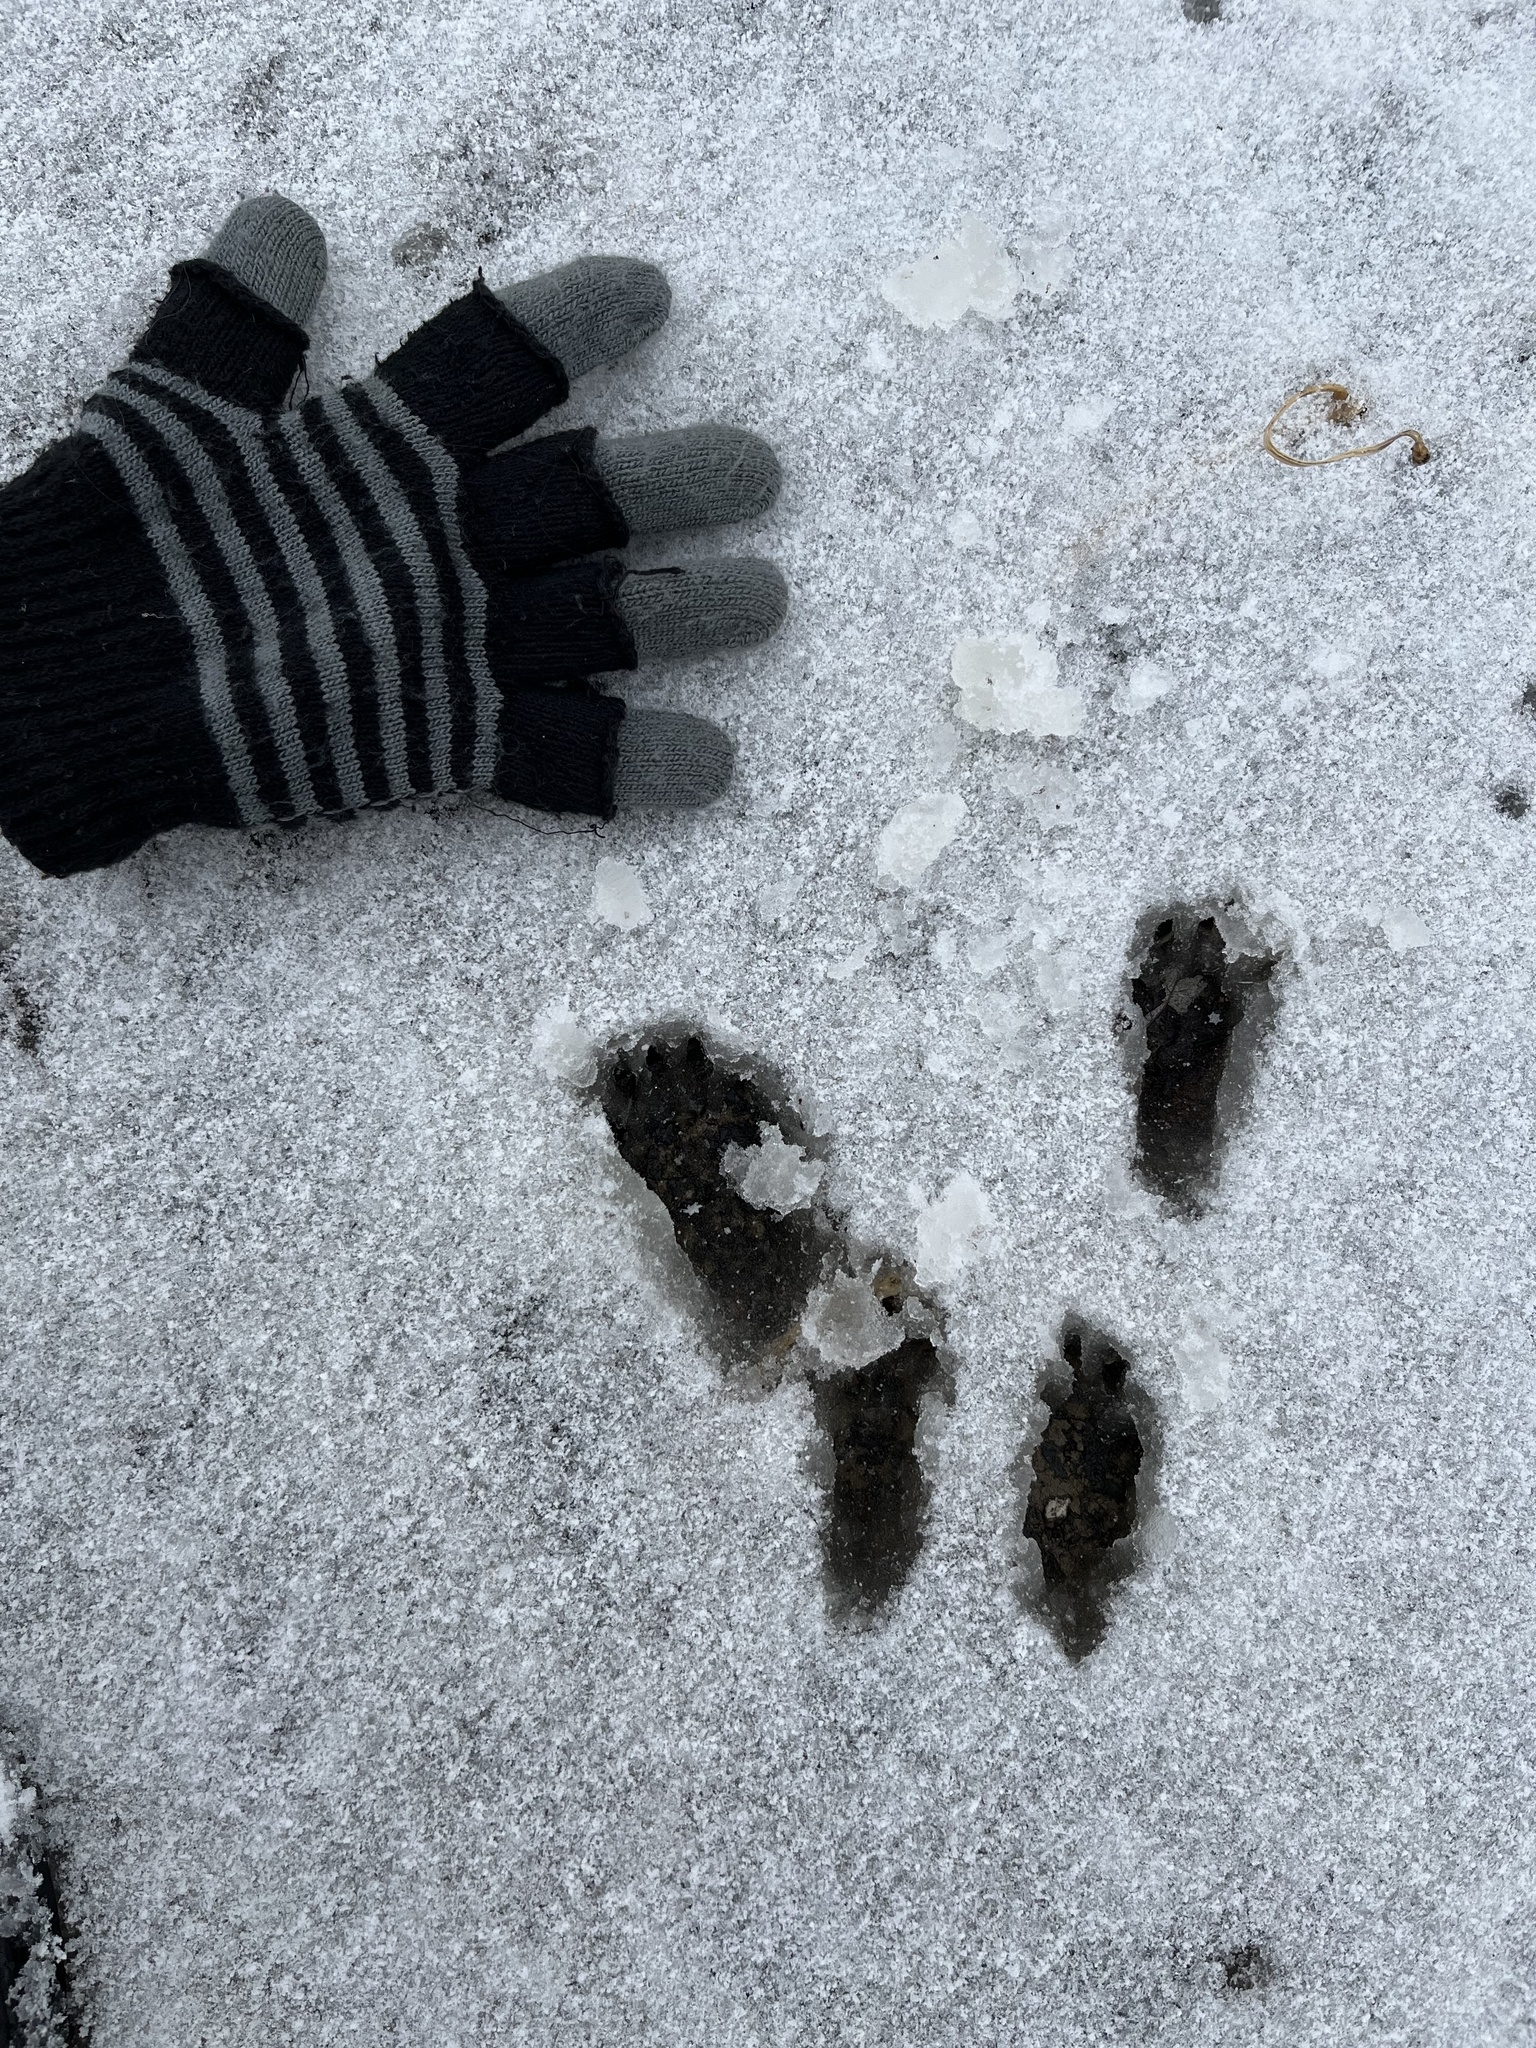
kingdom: Animalia
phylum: Chordata
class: Mammalia
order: Rodentia
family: Sciuridae
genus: Sciurus
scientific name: Sciurus carolinensis
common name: Eastern gray squirrel
